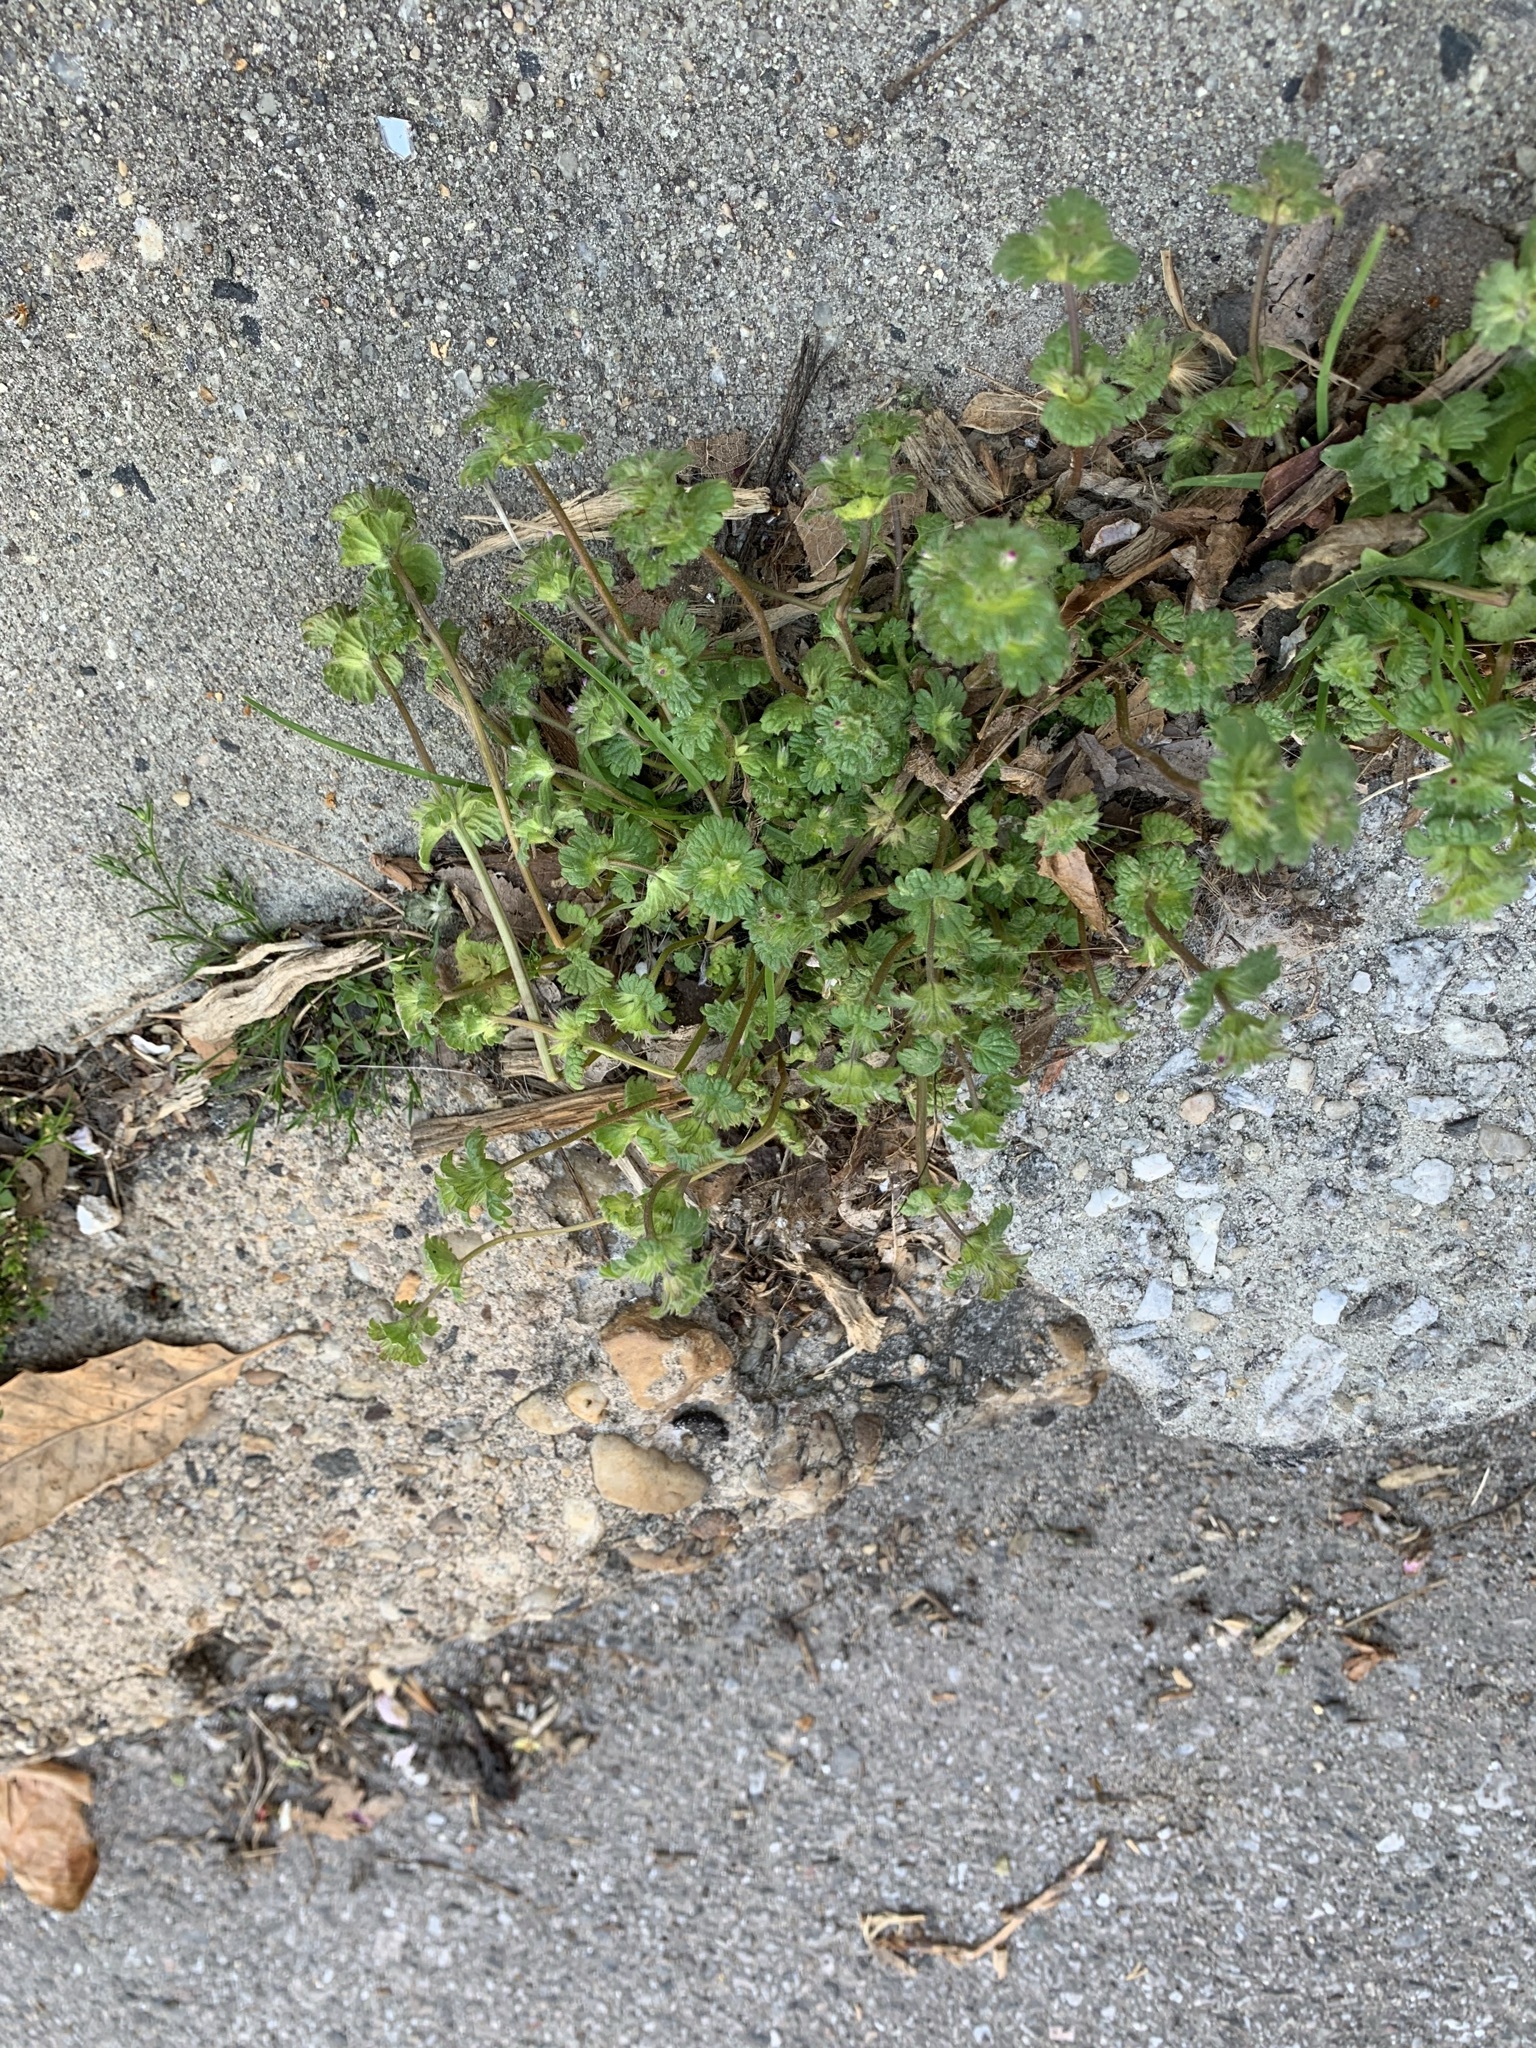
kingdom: Plantae
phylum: Tracheophyta
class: Magnoliopsida
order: Lamiales
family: Lamiaceae
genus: Lamium
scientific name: Lamium amplexicaule
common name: Henbit dead-nettle
